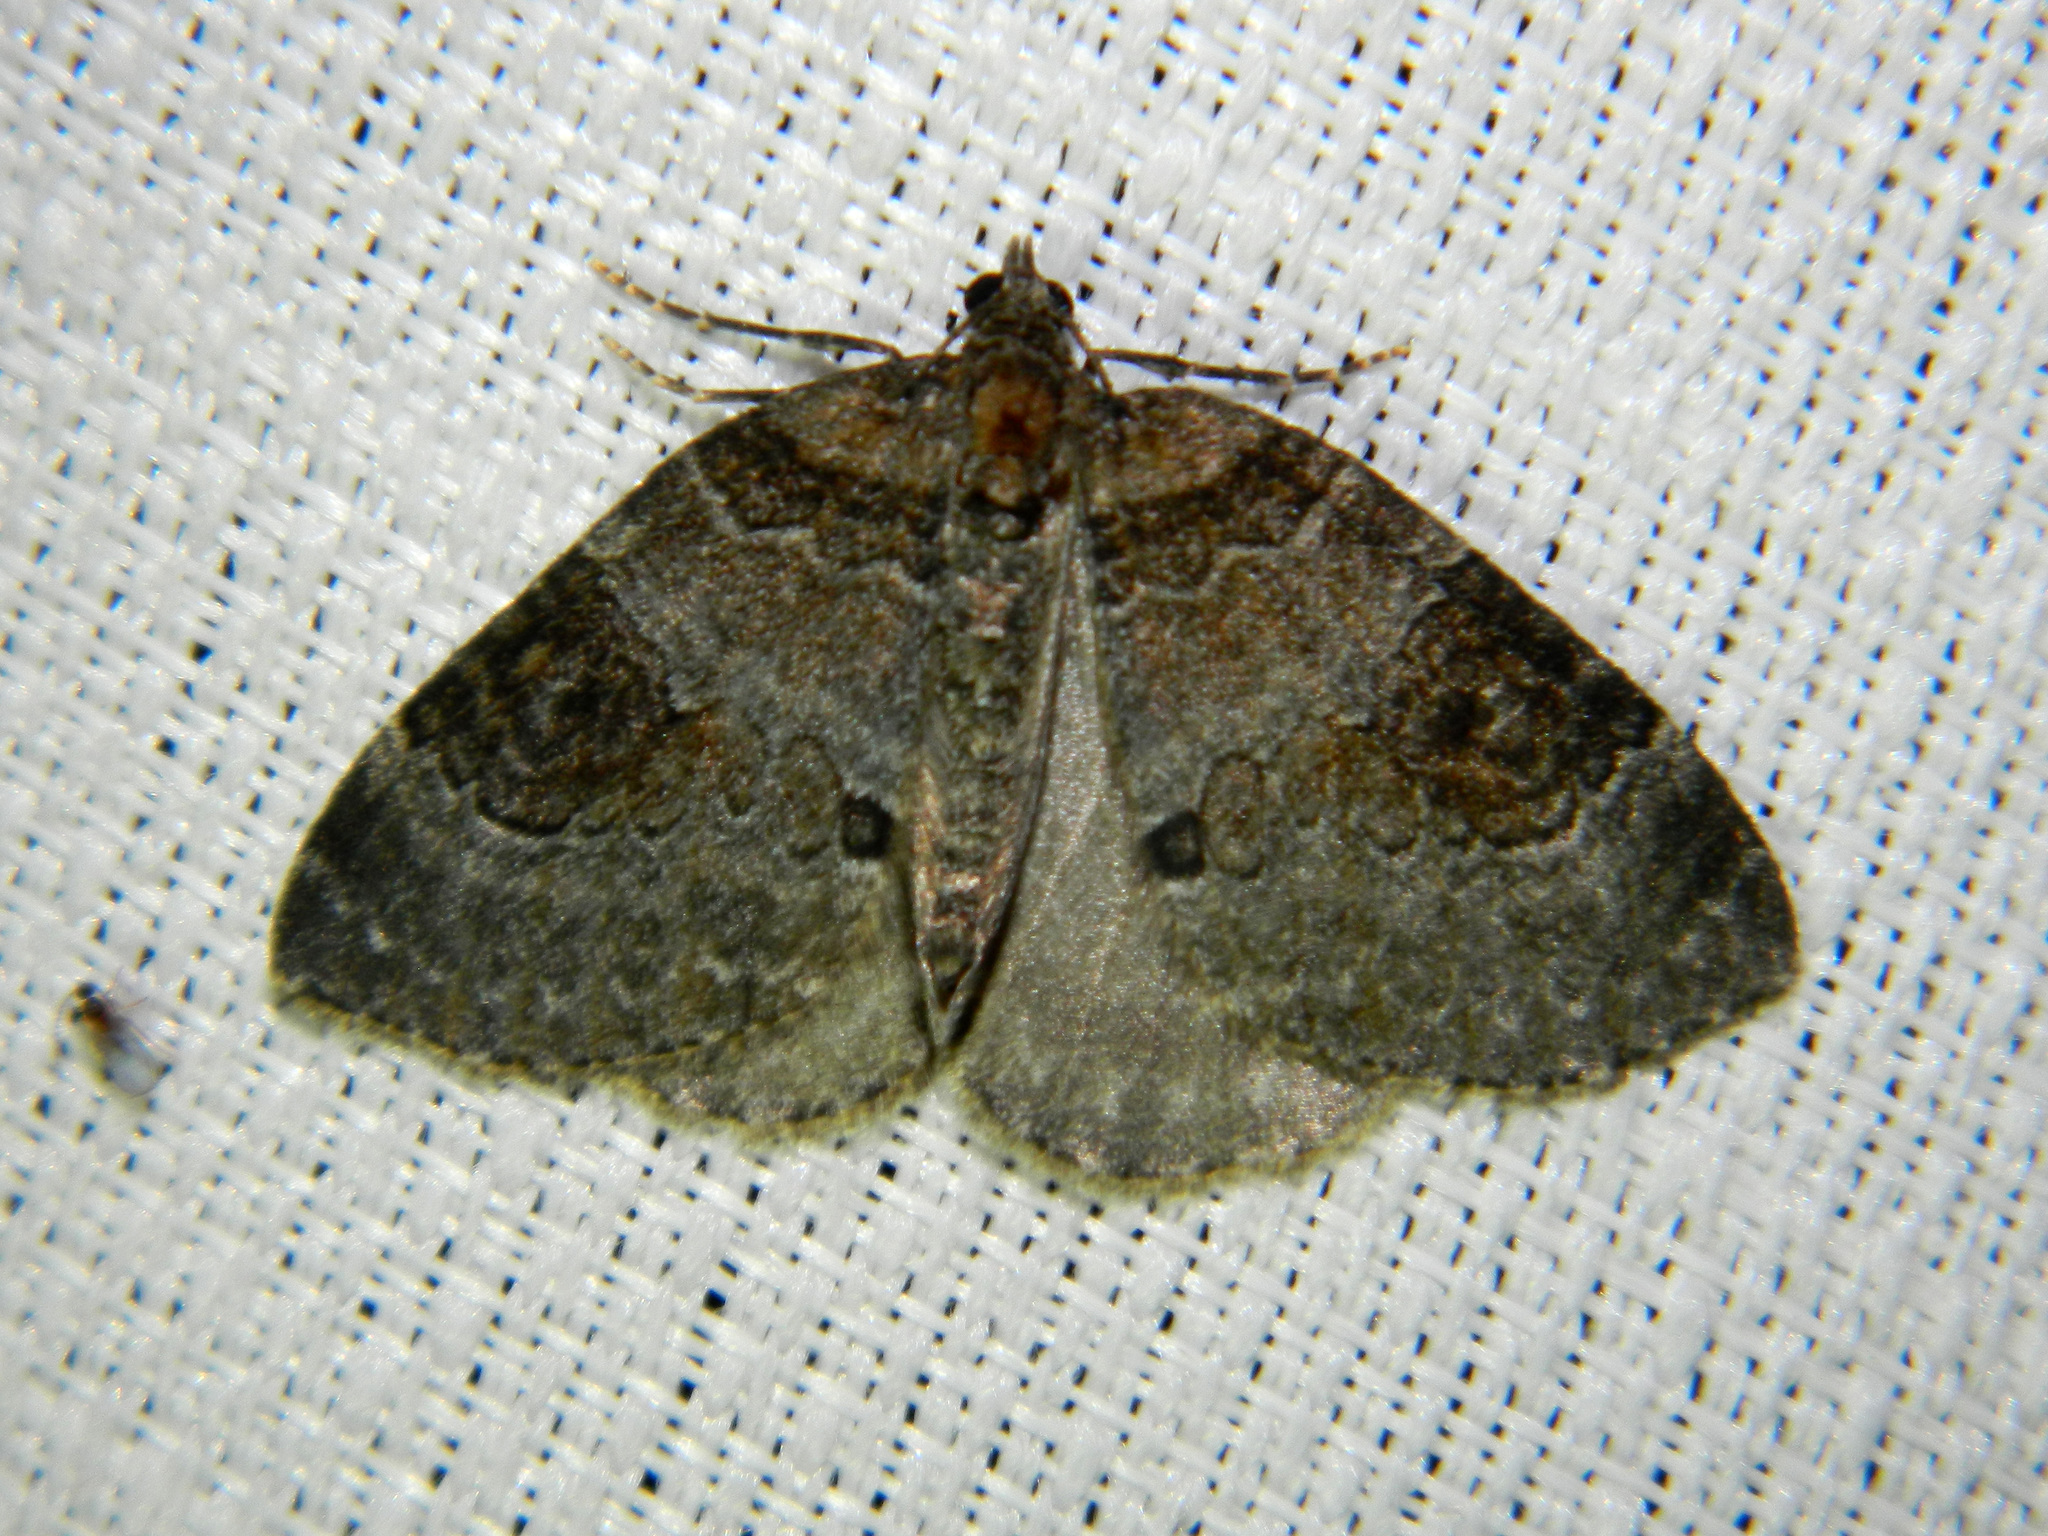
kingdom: Animalia
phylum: Arthropoda
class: Insecta
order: Lepidoptera
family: Geometridae
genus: Plemyria
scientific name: Plemyria georgii
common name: George's carpet moth
